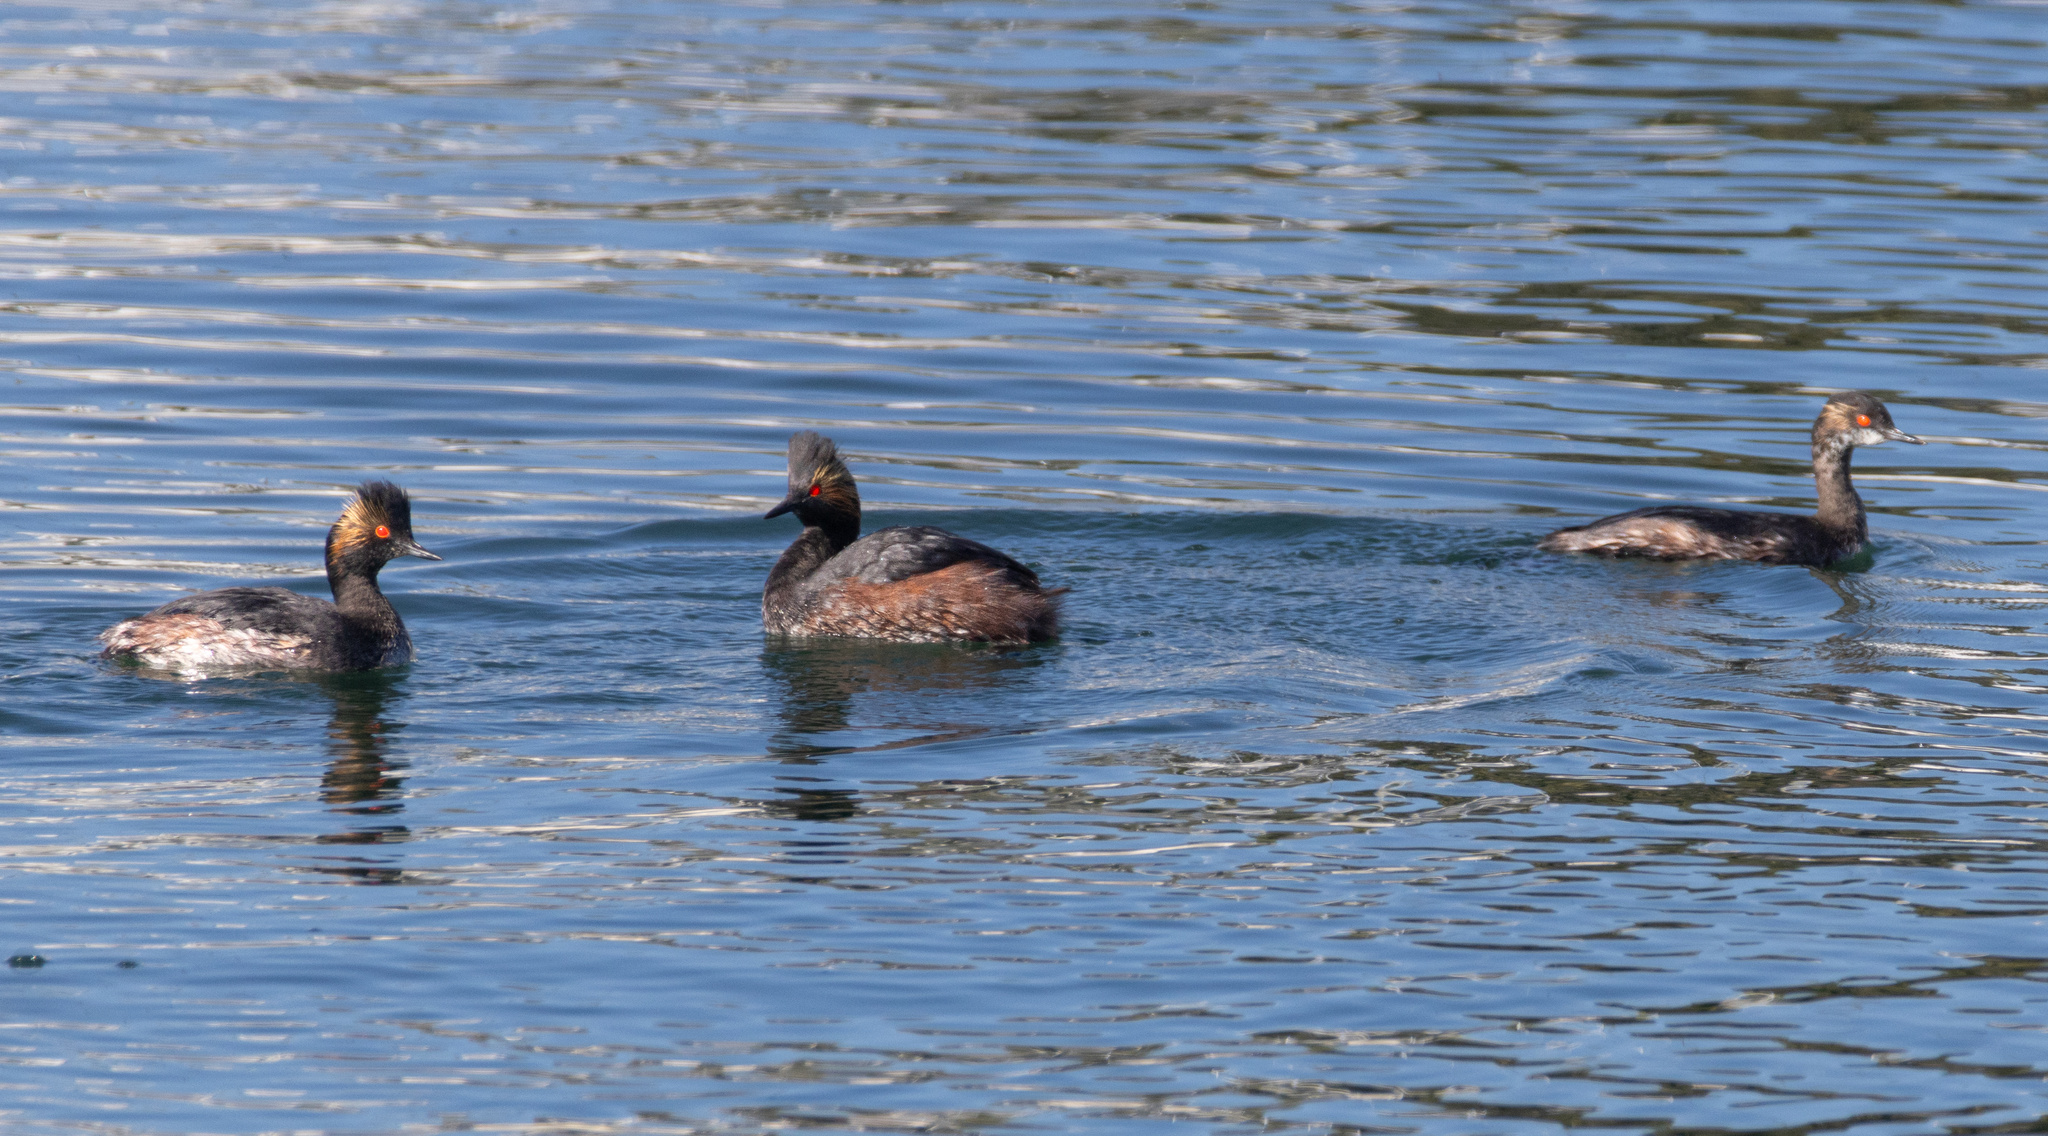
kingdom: Animalia
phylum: Chordata
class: Aves
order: Podicipediformes
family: Podicipedidae
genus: Podiceps
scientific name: Podiceps nigricollis
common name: Black-necked grebe
